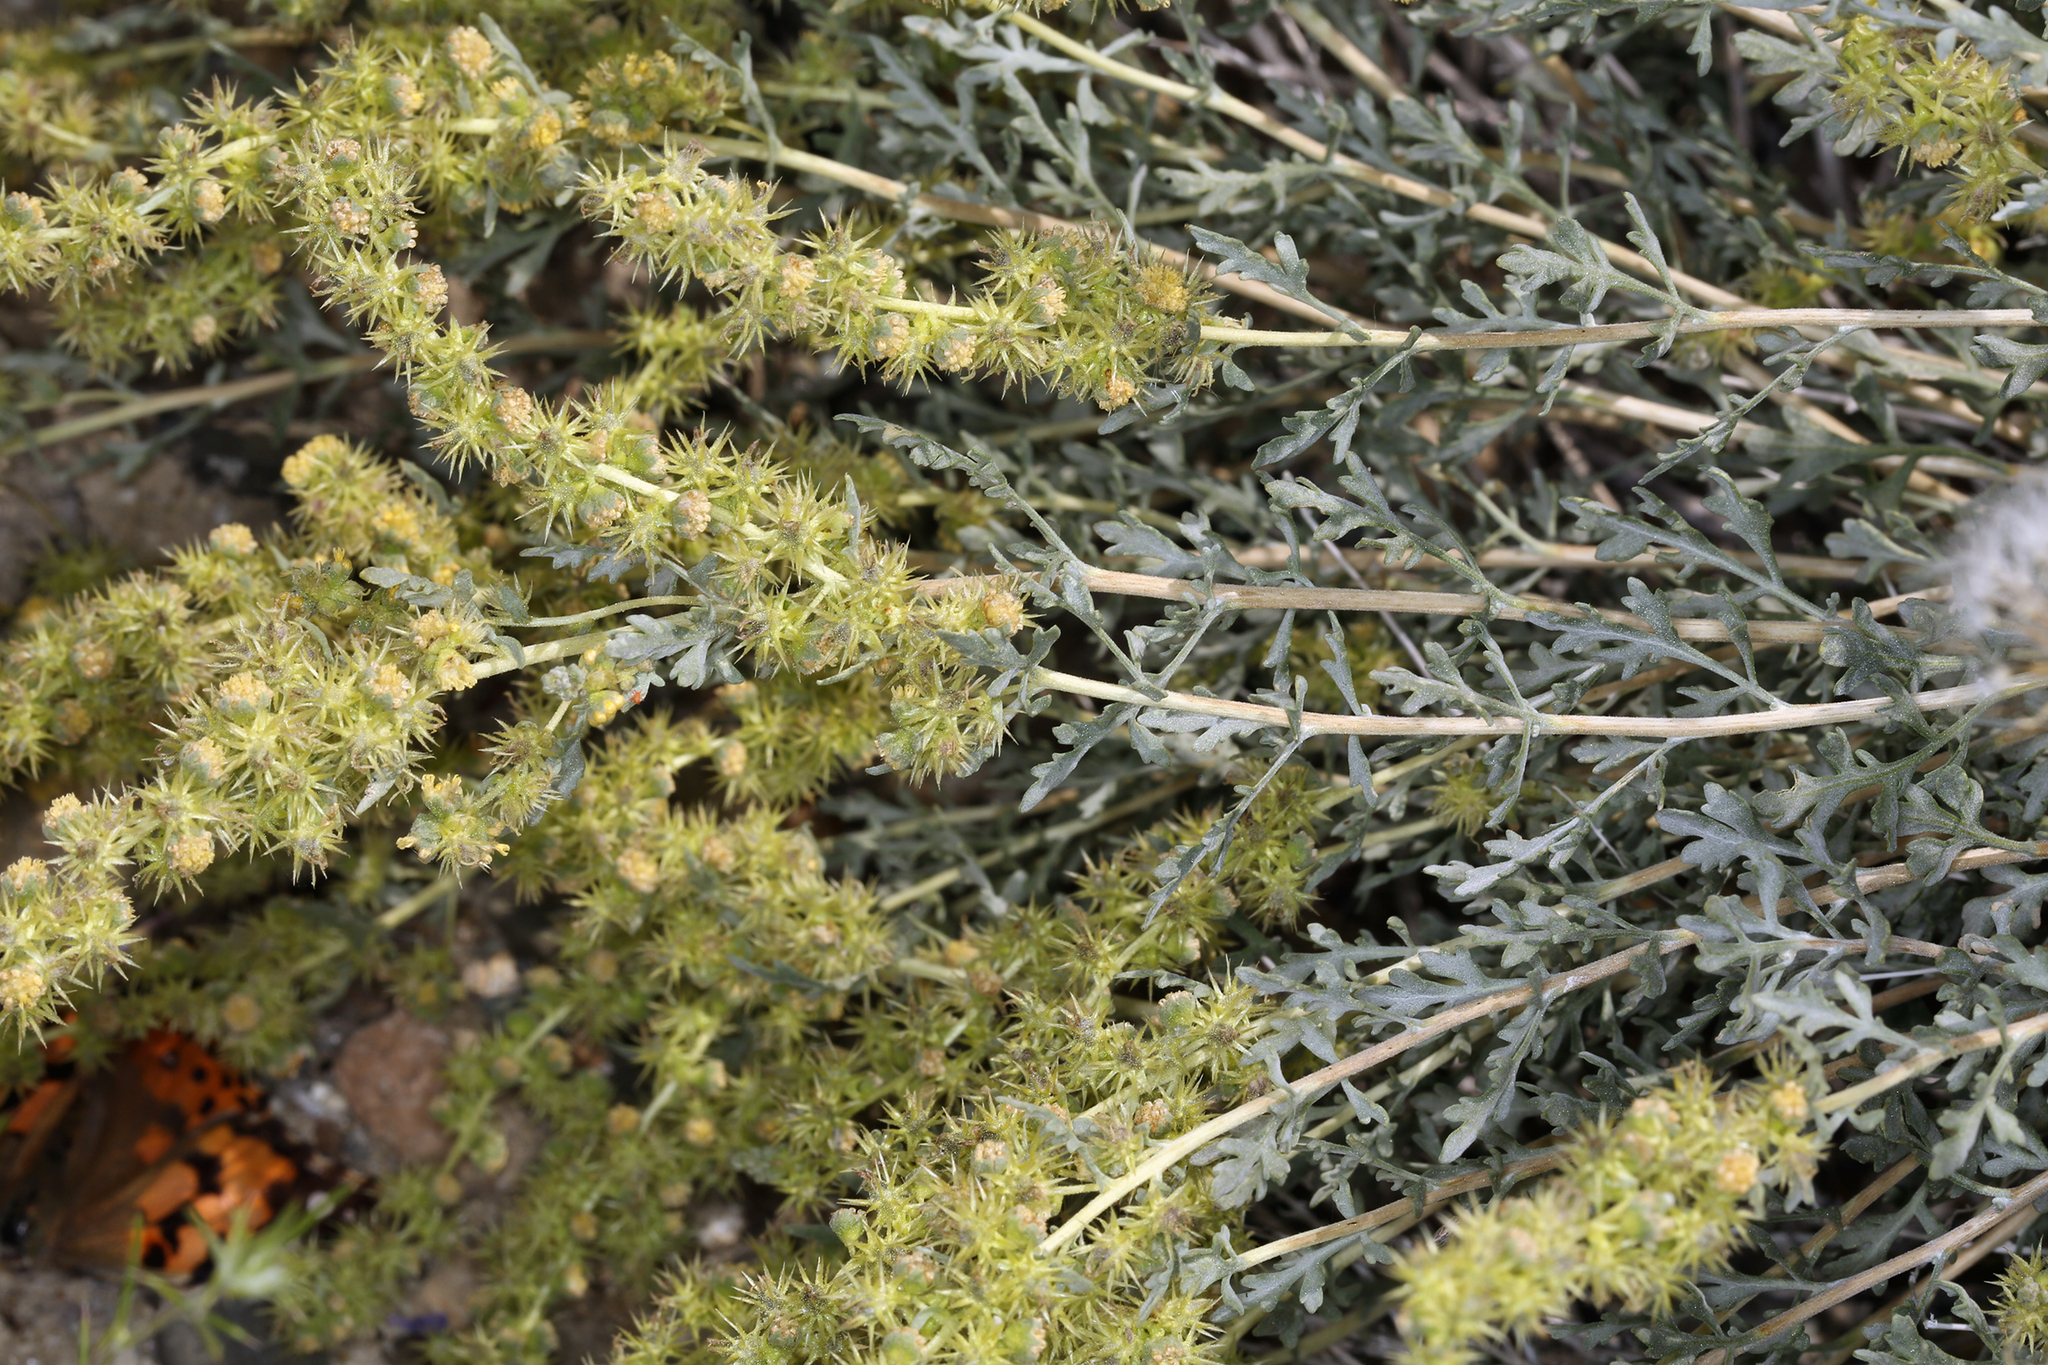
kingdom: Plantae
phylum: Tracheophyta
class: Magnoliopsida
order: Asterales
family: Asteraceae
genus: Ambrosia
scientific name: Ambrosia dumosa
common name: Bur-sage
